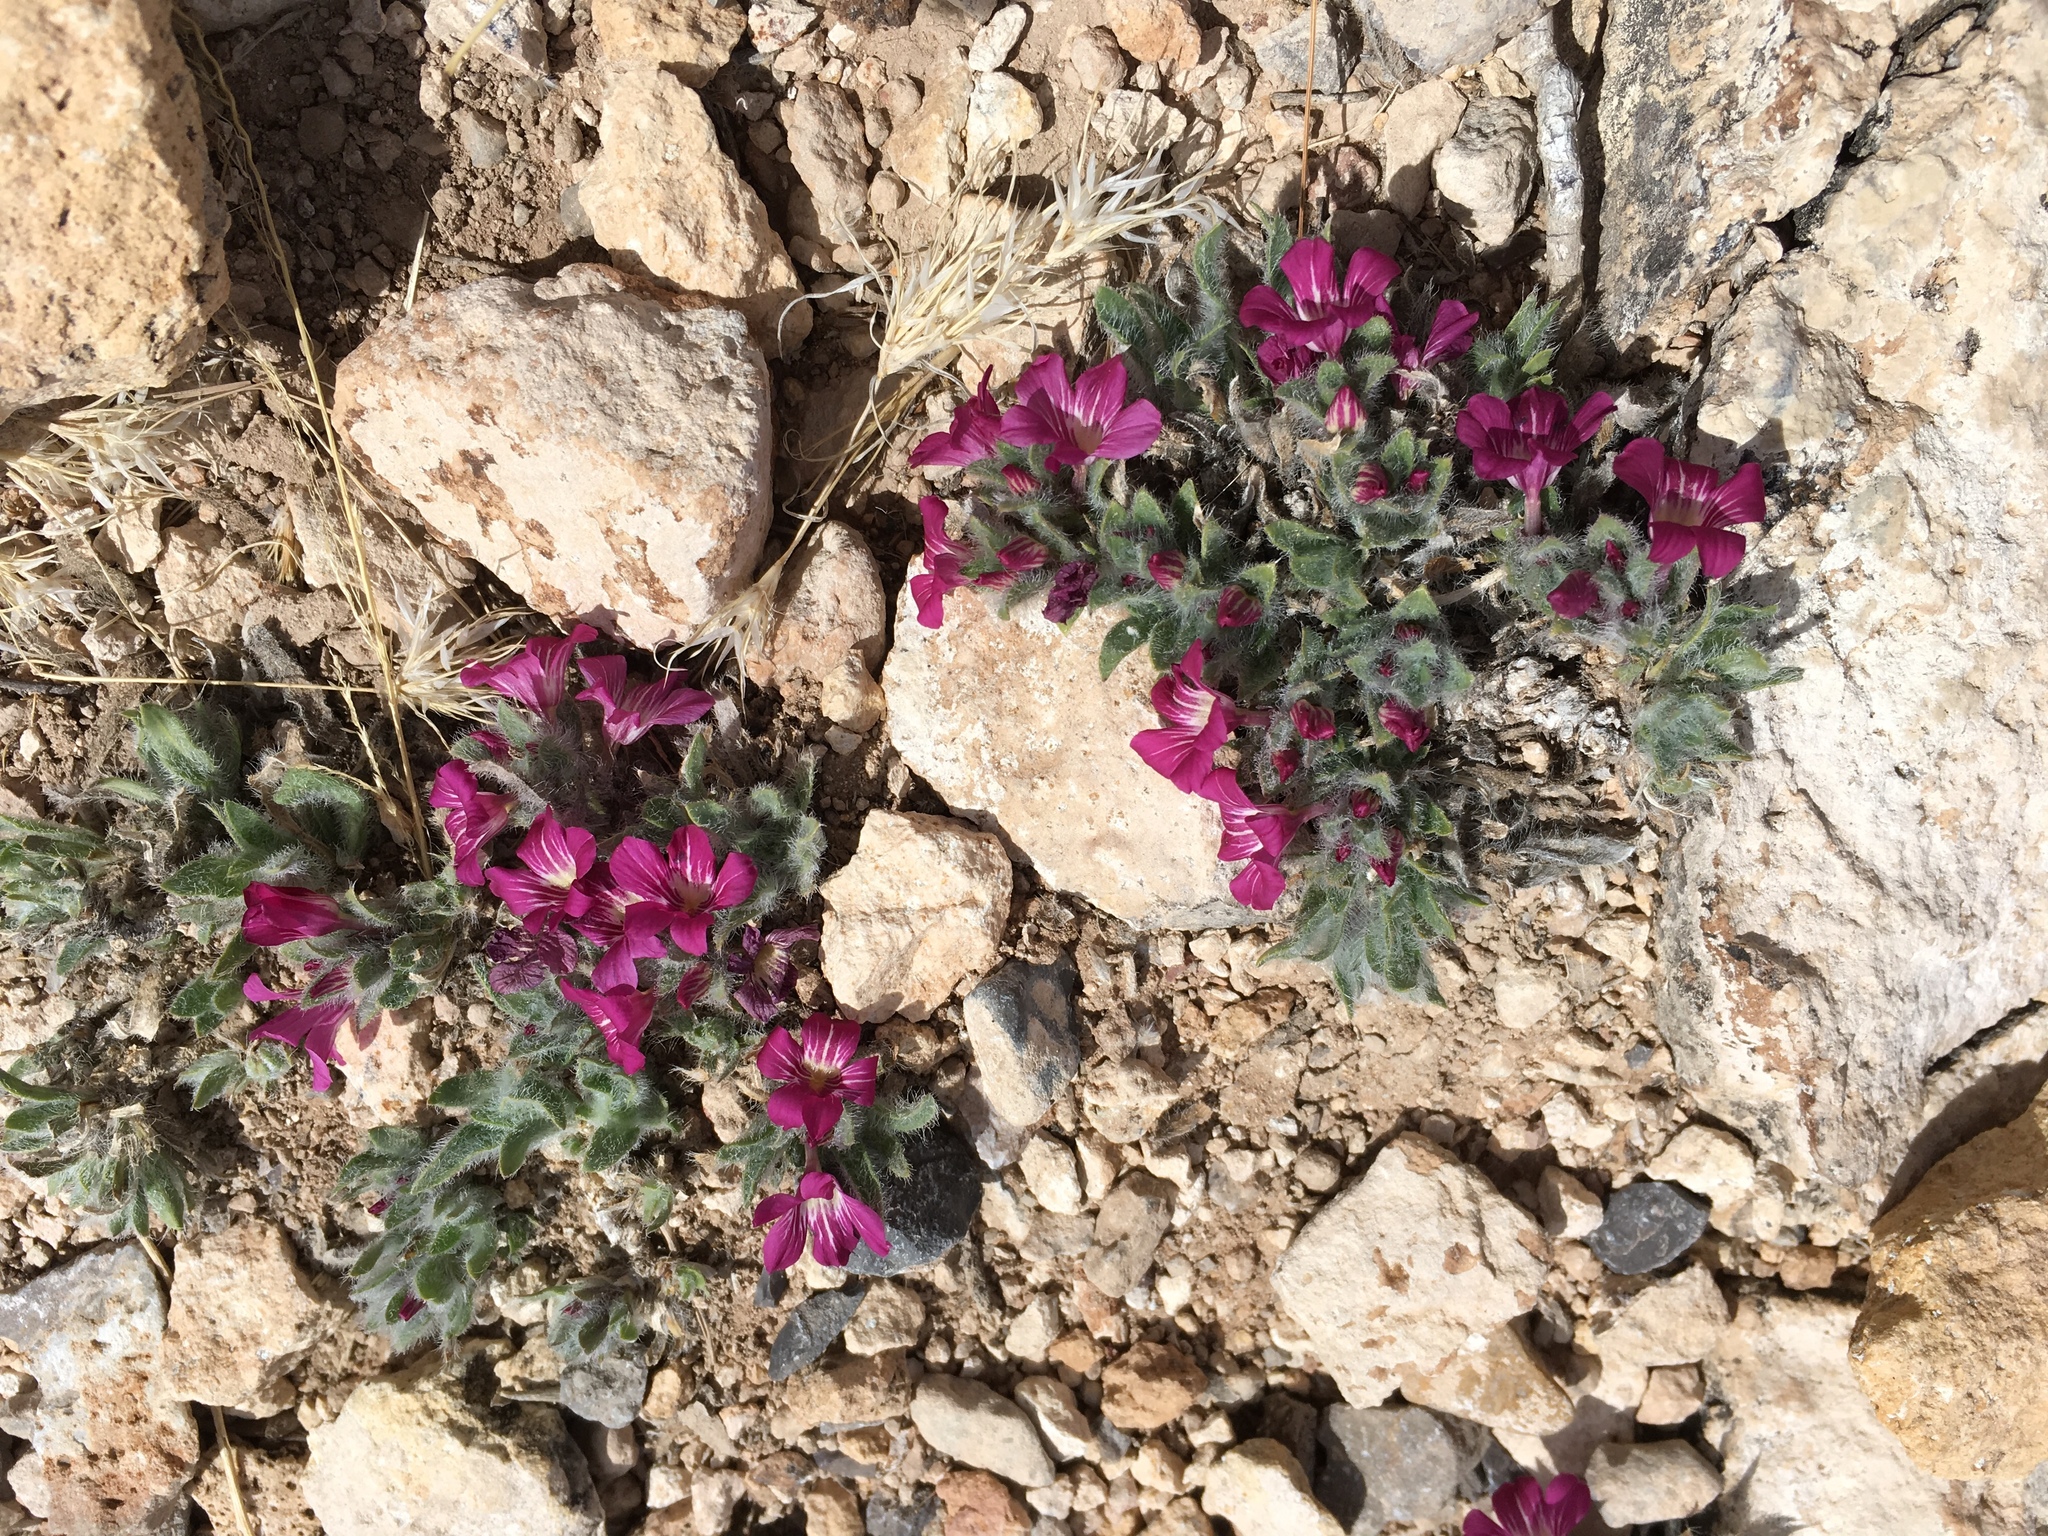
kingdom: Plantae
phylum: Tracheophyta
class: Magnoliopsida
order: Lamiales
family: Acanthaceae
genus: Stenandrium
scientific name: Stenandrium barbatum
